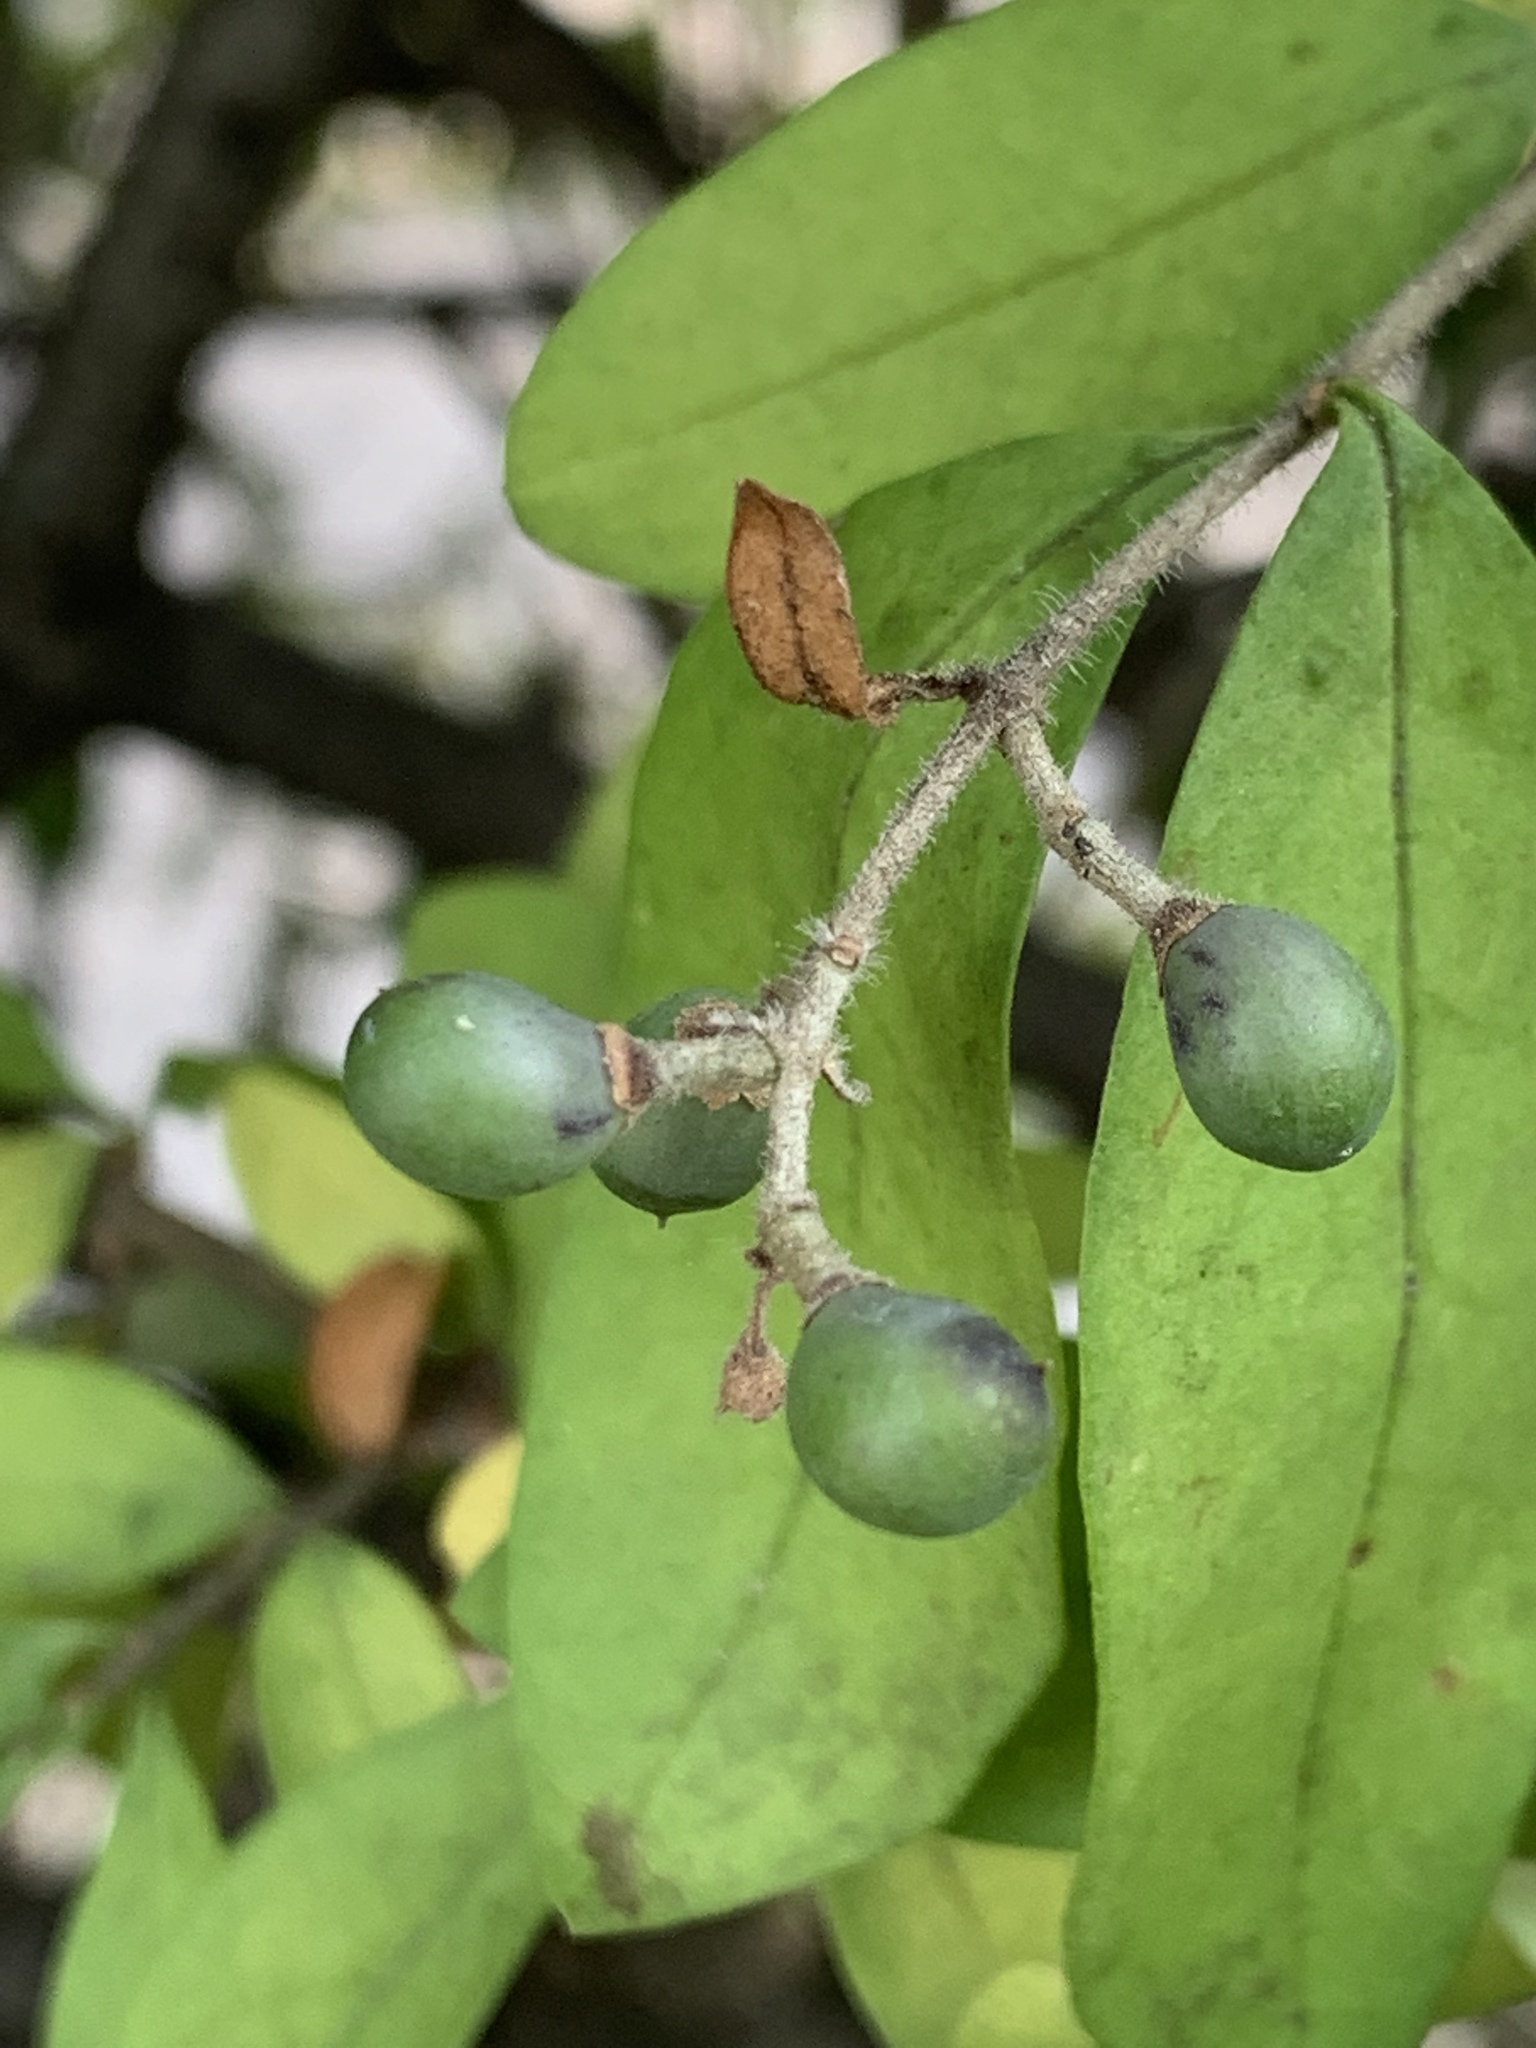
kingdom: Plantae
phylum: Tracheophyta
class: Magnoliopsida
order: Lamiales
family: Oleaceae
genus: Ligustrum
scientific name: Ligustrum obtusifolium
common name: Border privet
